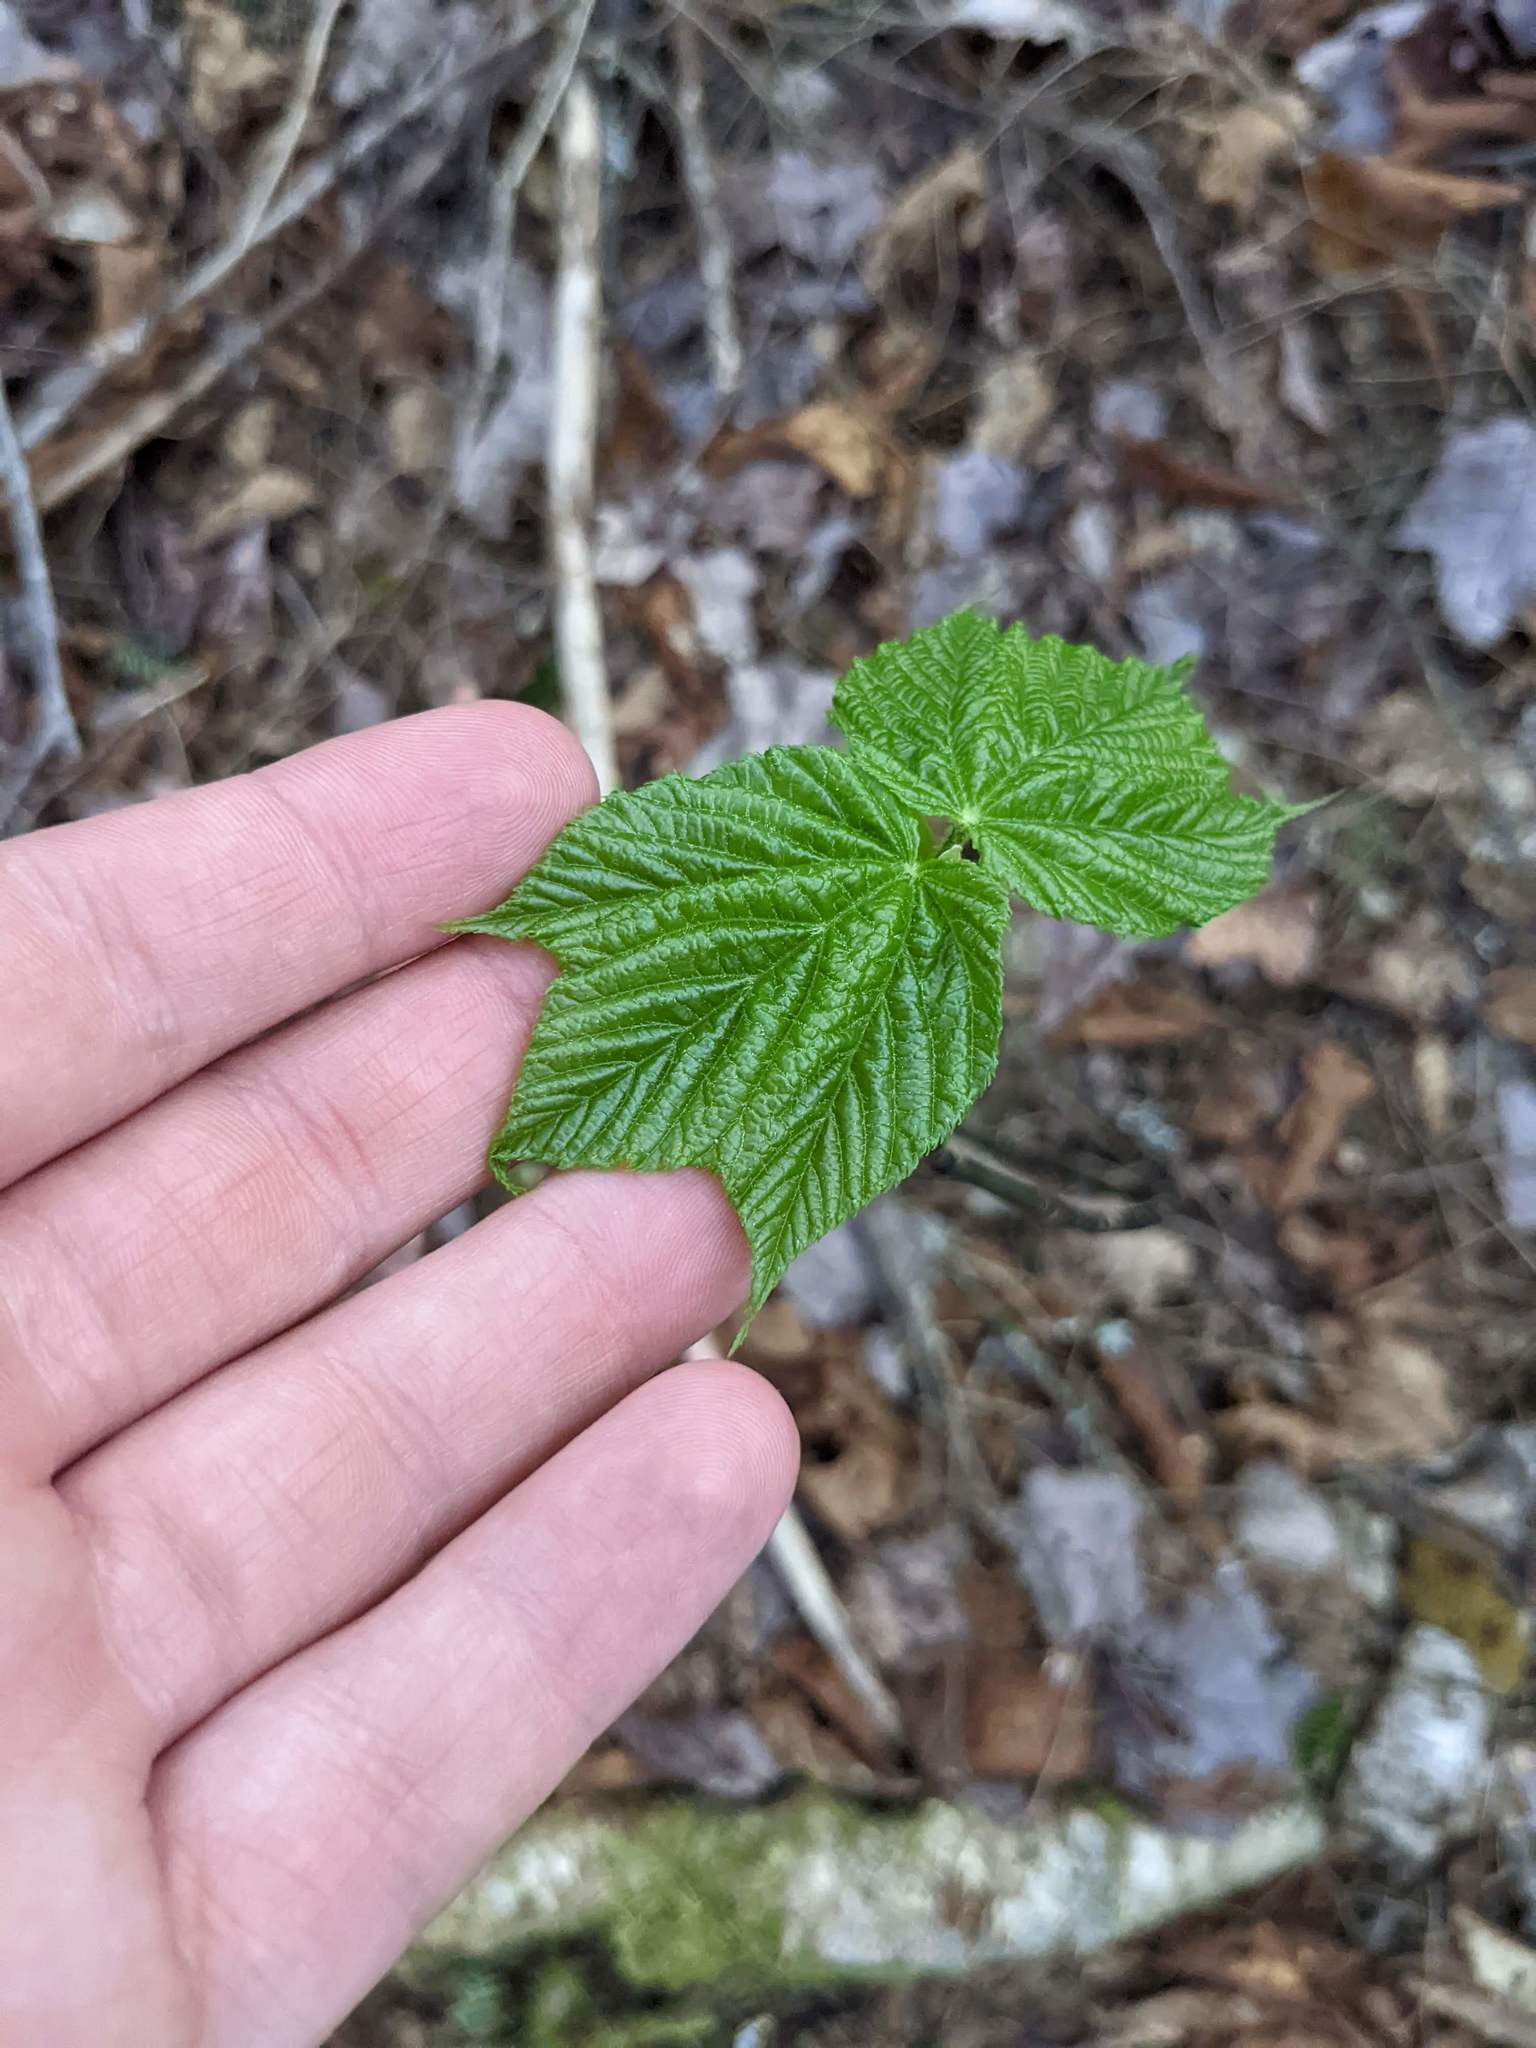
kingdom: Plantae
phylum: Tracheophyta
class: Magnoliopsida
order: Sapindales
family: Sapindaceae
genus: Acer
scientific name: Acer pensylvanicum
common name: Moosewood
